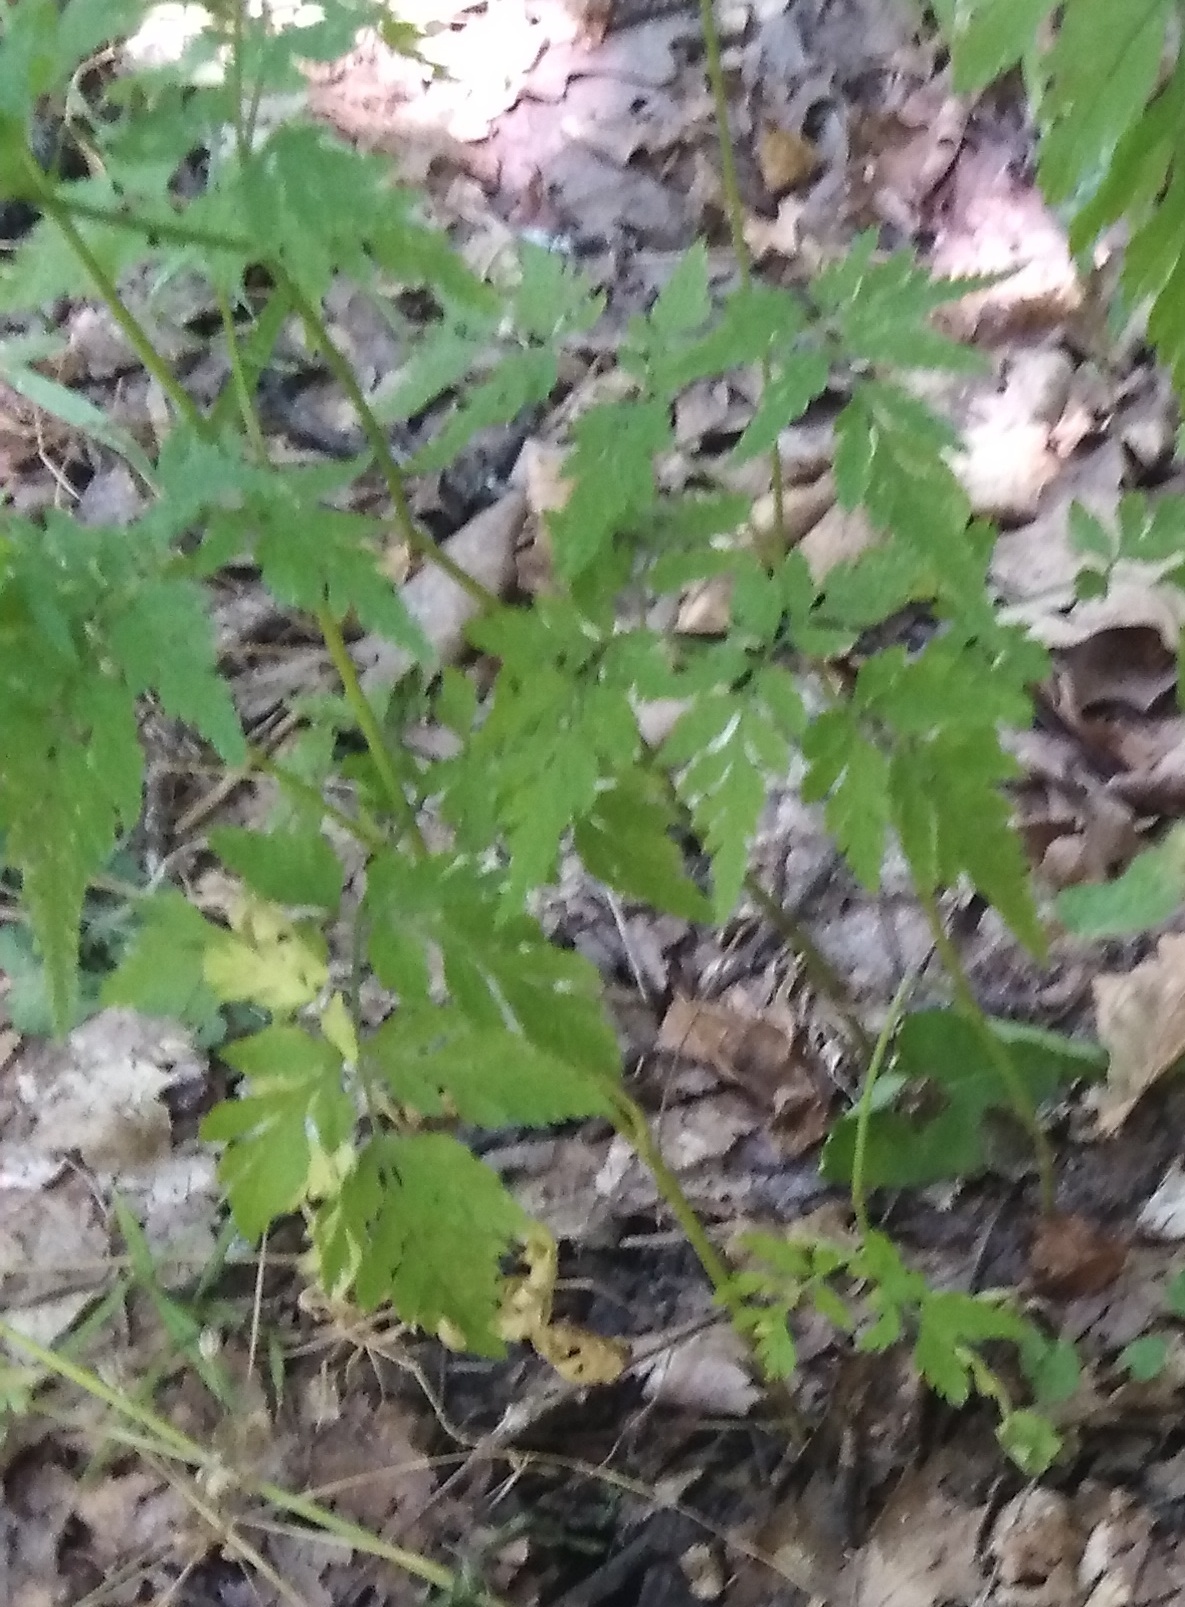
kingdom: Plantae
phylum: Tracheophyta
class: Magnoliopsida
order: Apiales
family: Apiaceae
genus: Torilis
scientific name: Torilis japonica
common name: Upright hedge-parsley
